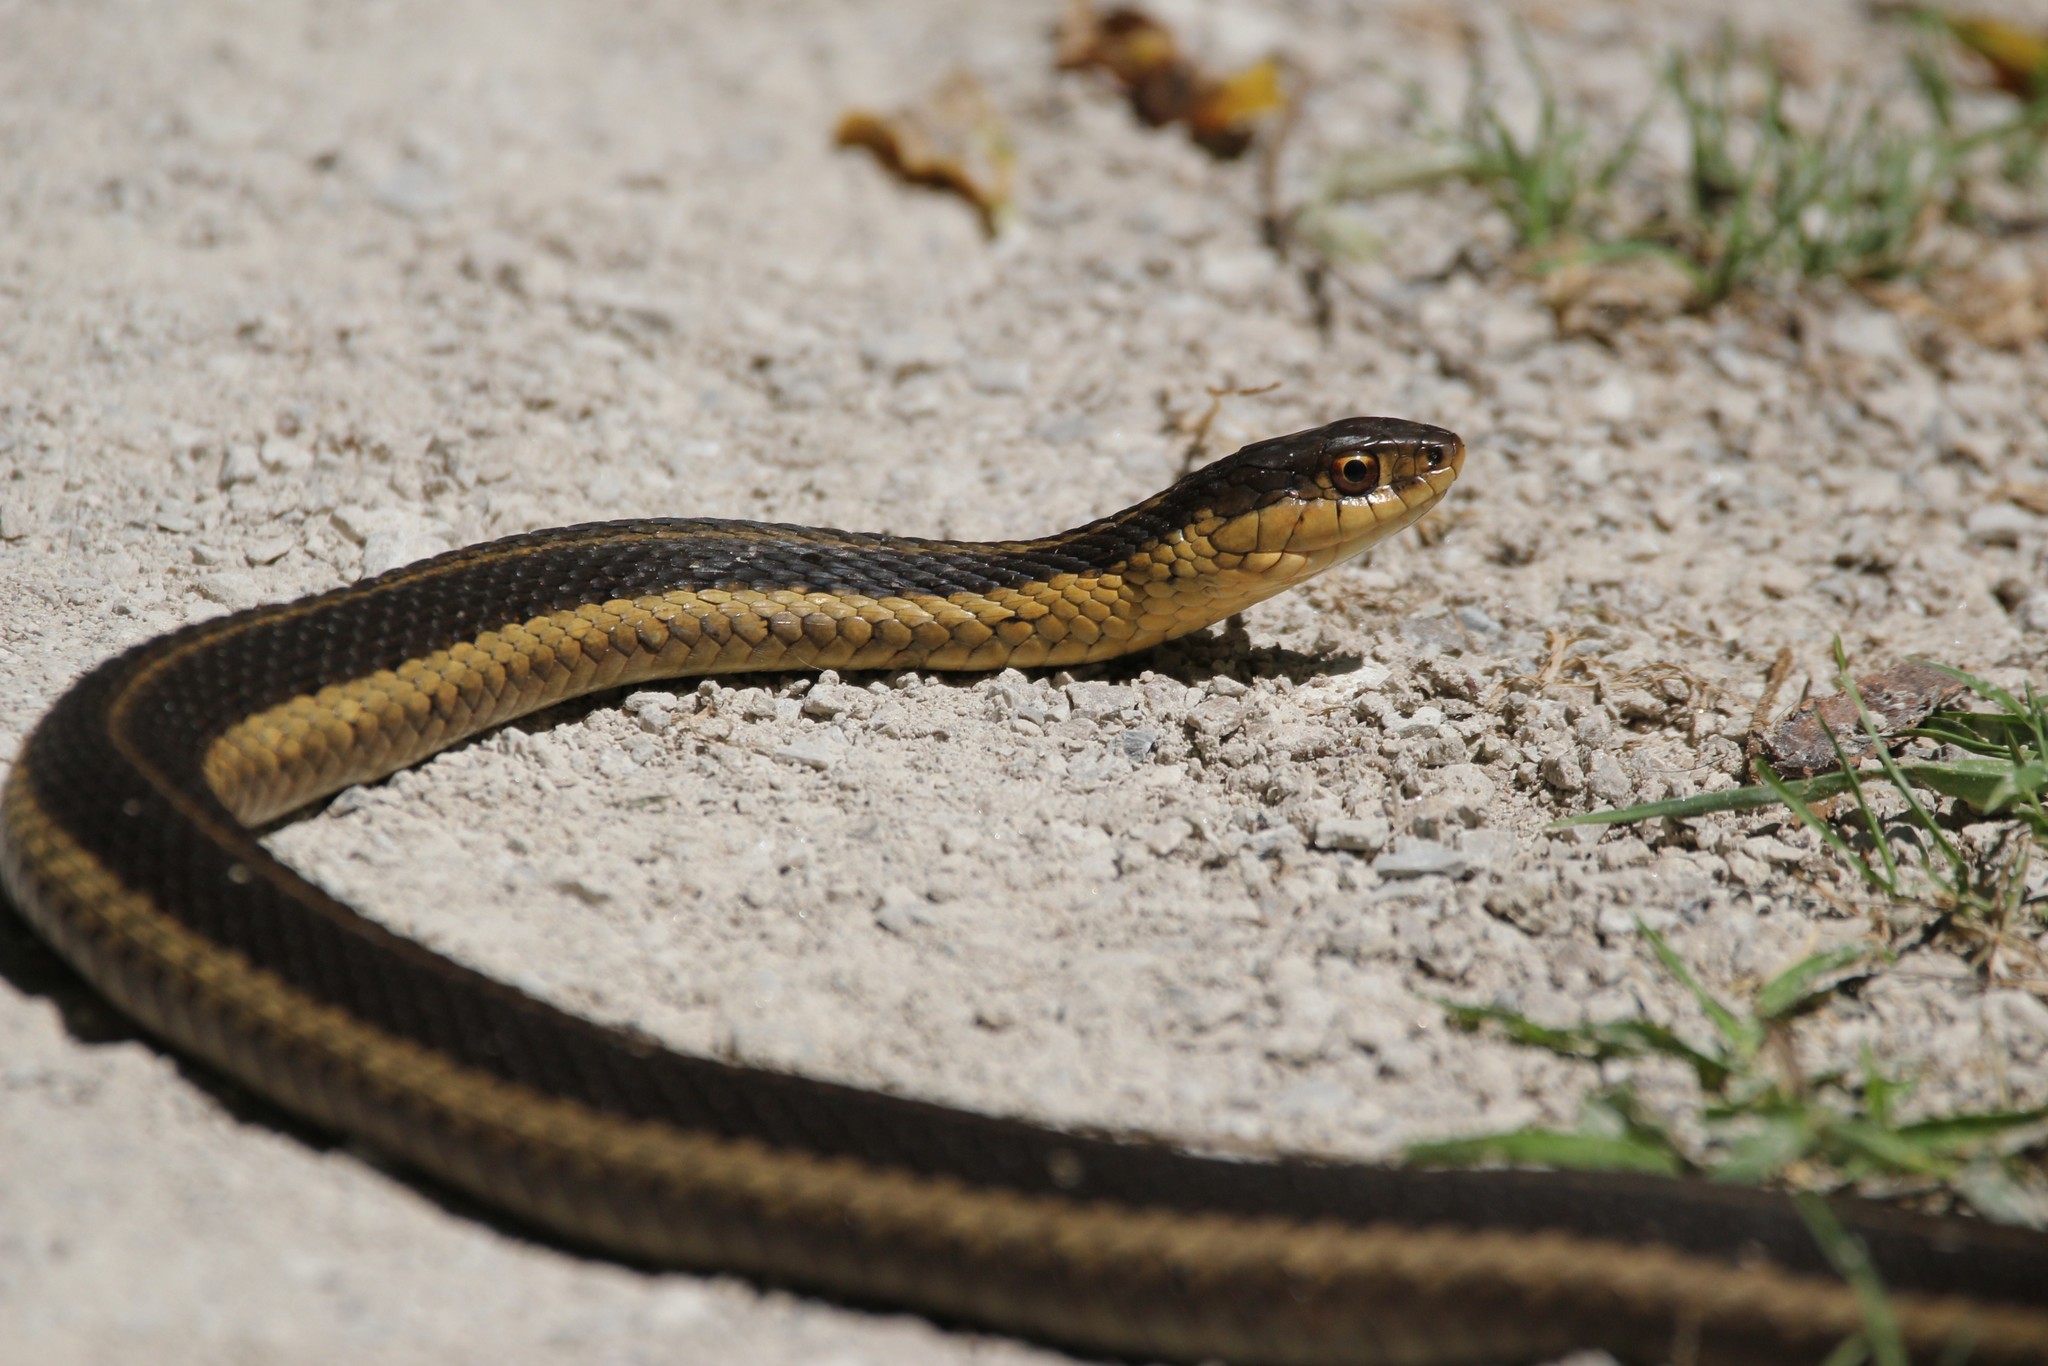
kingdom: Animalia
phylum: Chordata
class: Squamata
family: Colubridae
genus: Thamnophis
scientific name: Thamnophis sirtalis
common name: Common garter snake
